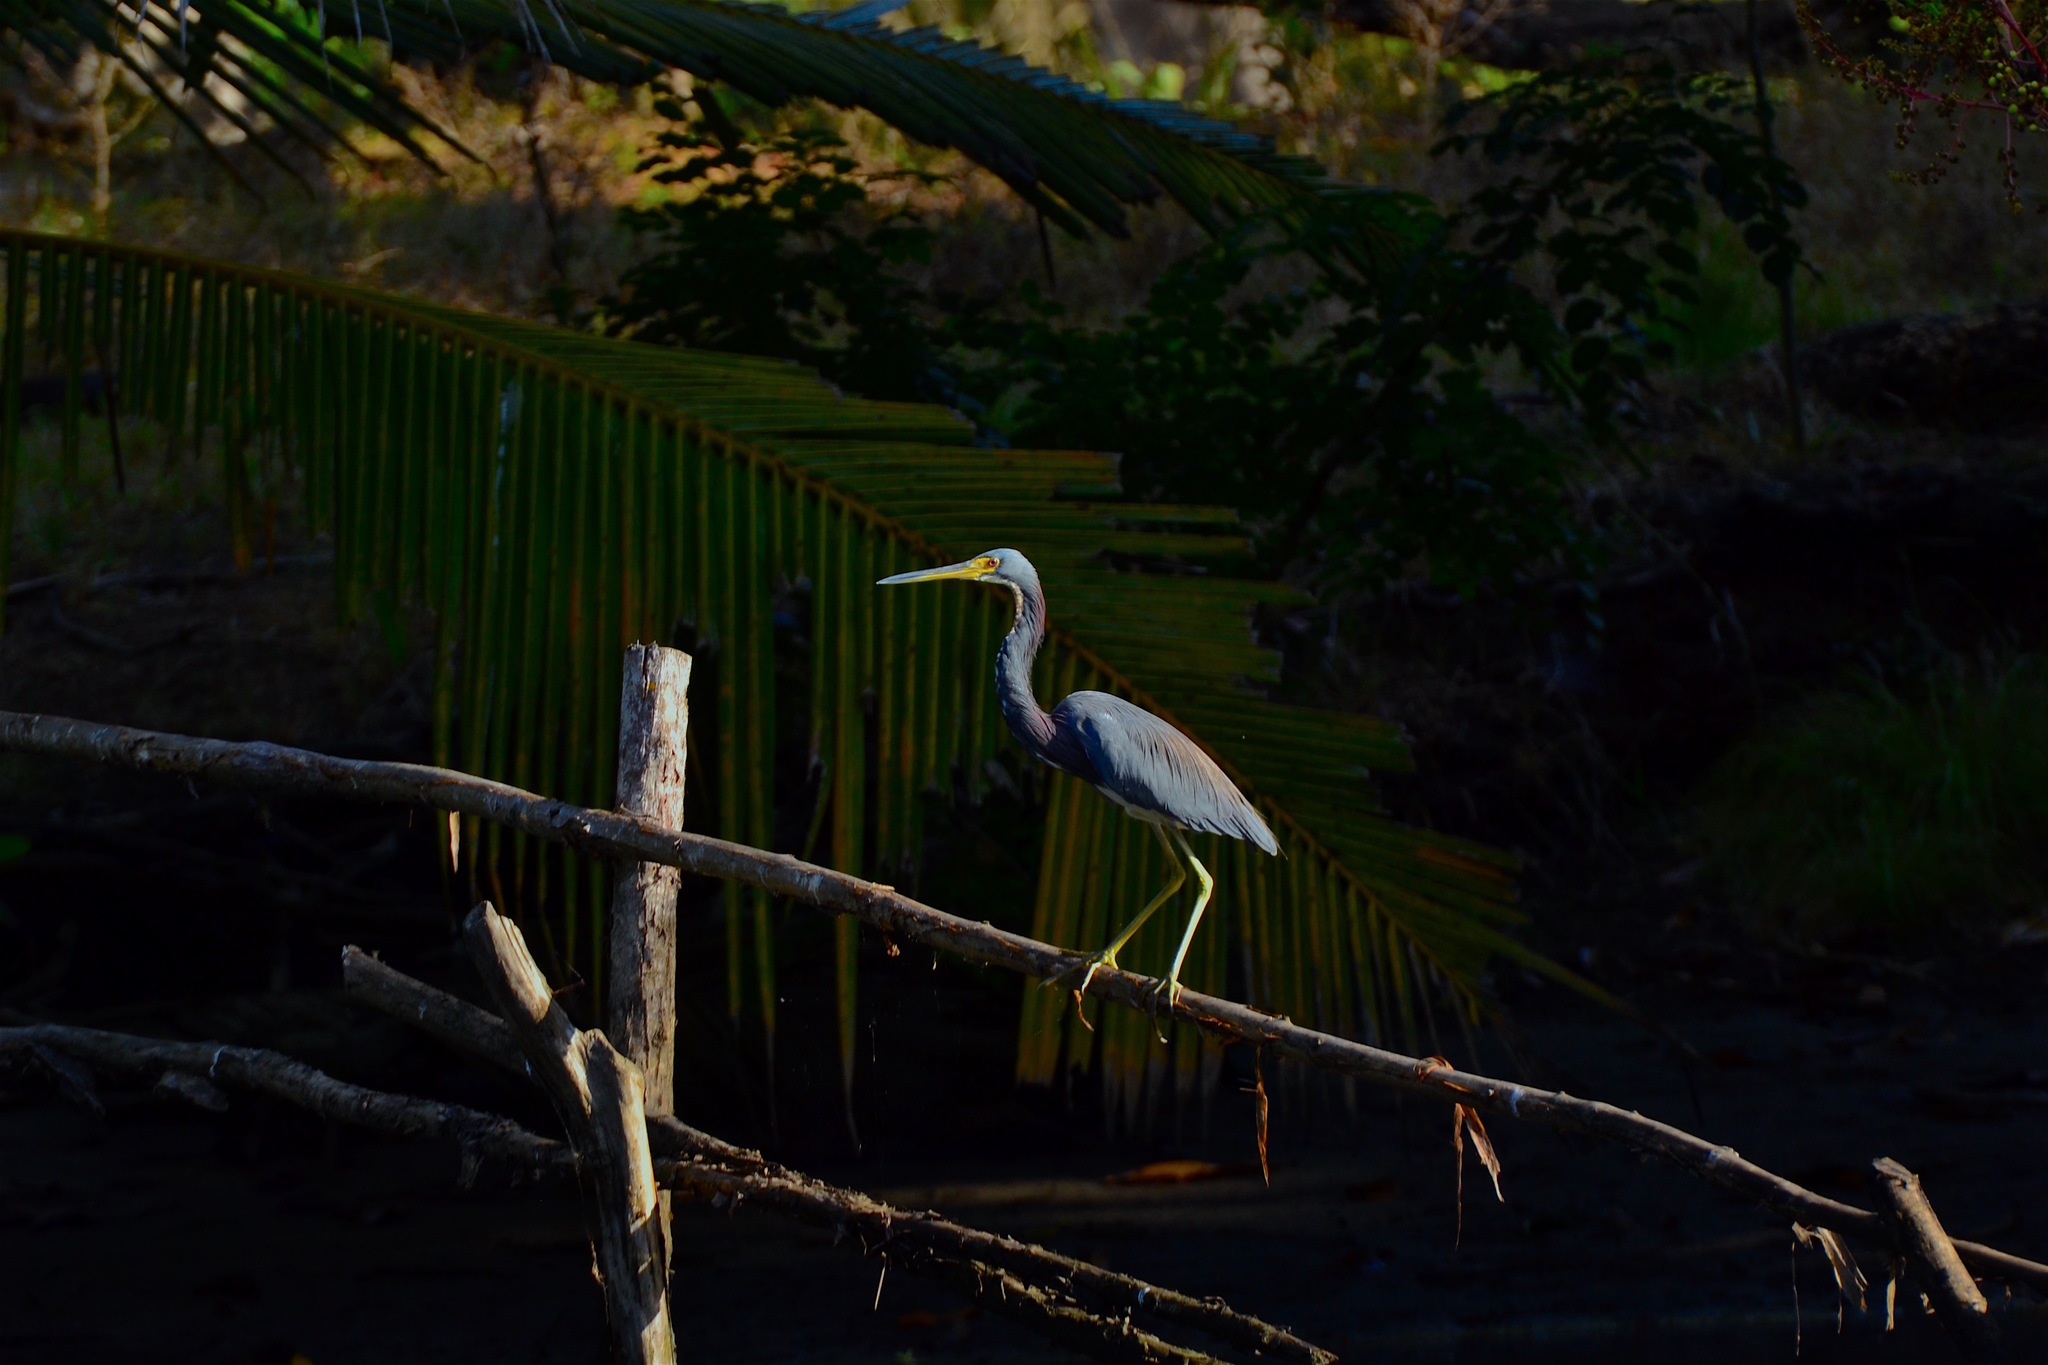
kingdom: Animalia
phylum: Chordata
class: Aves
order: Pelecaniformes
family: Ardeidae
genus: Egretta
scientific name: Egretta tricolor
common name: Tricolored heron
